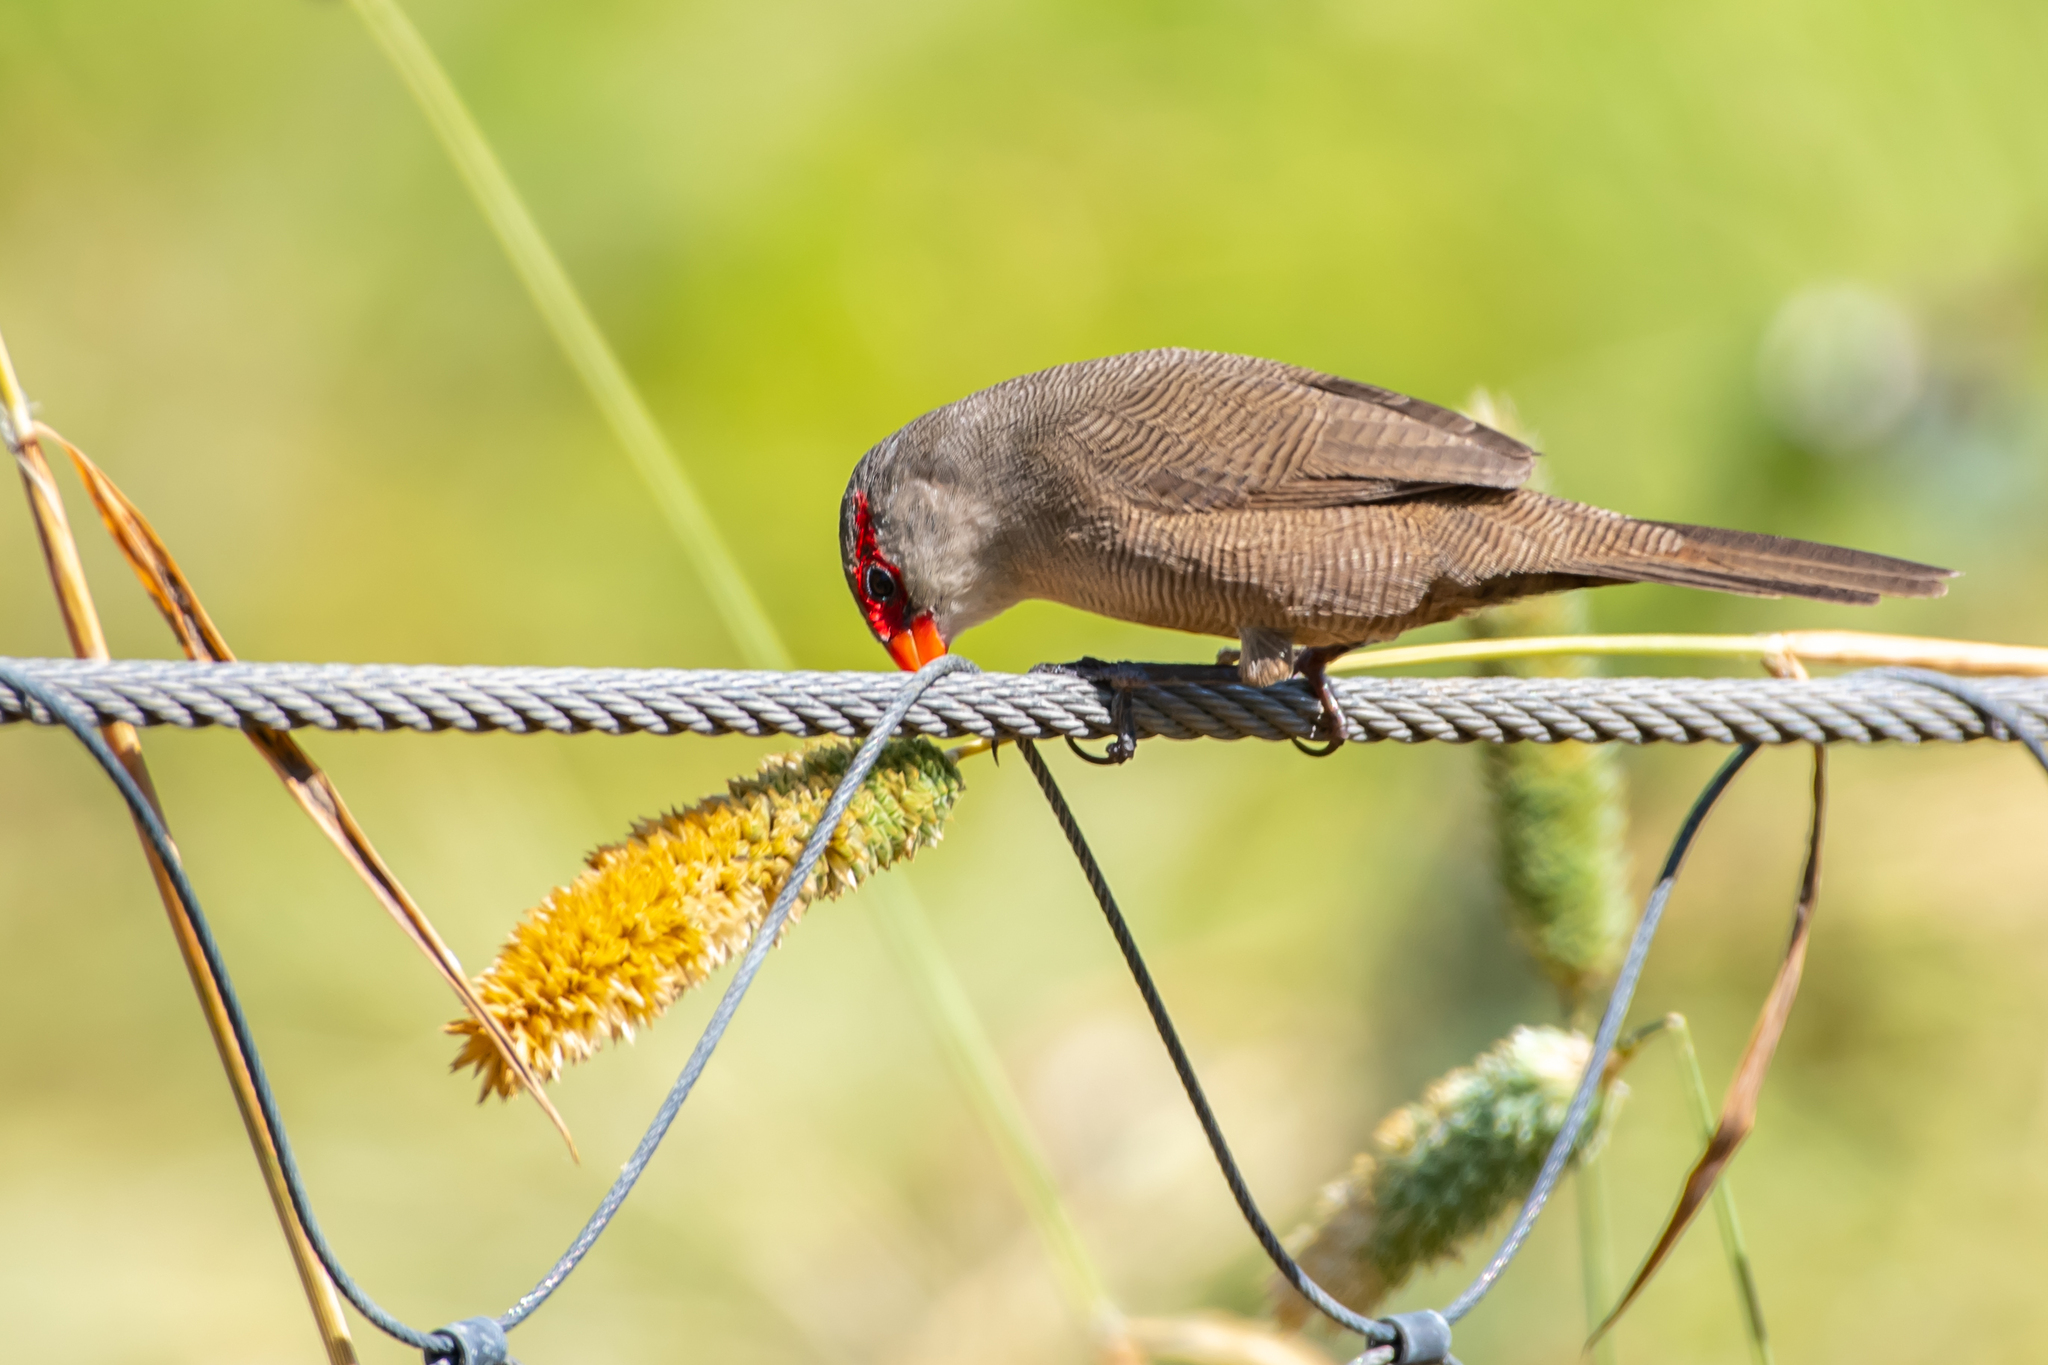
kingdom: Animalia
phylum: Chordata
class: Aves
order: Passeriformes
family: Estrildidae
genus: Estrilda
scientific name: Estrilda astrild
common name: Common waxbill
